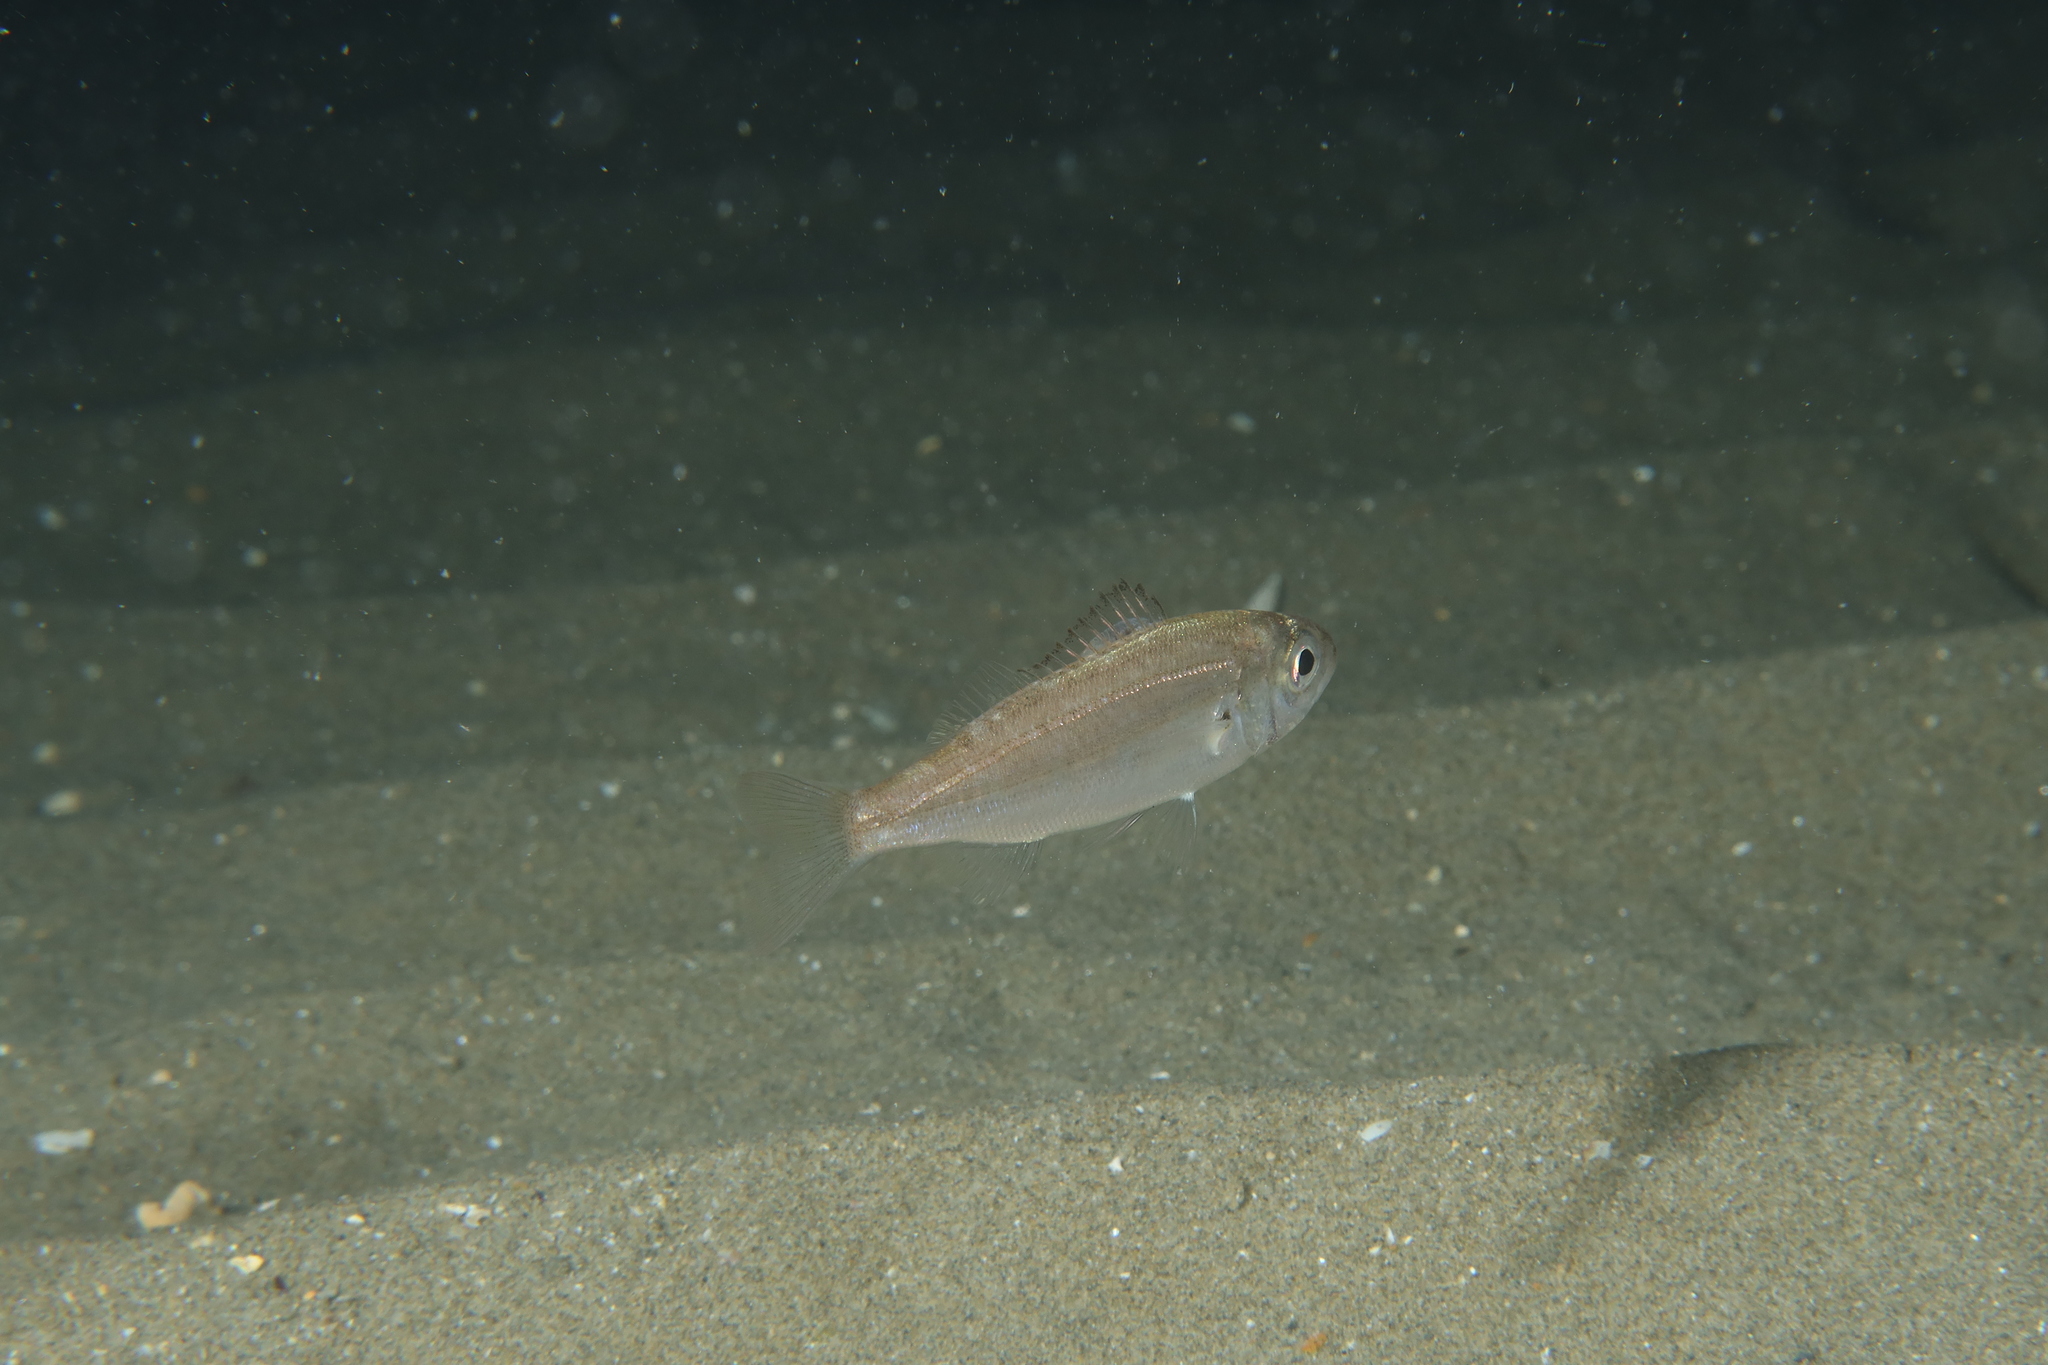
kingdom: Animalia
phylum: Chordata
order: Perciformes
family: Sparidae
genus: Pagellus
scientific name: Pagellus acarne
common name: Axillary sea-bream
